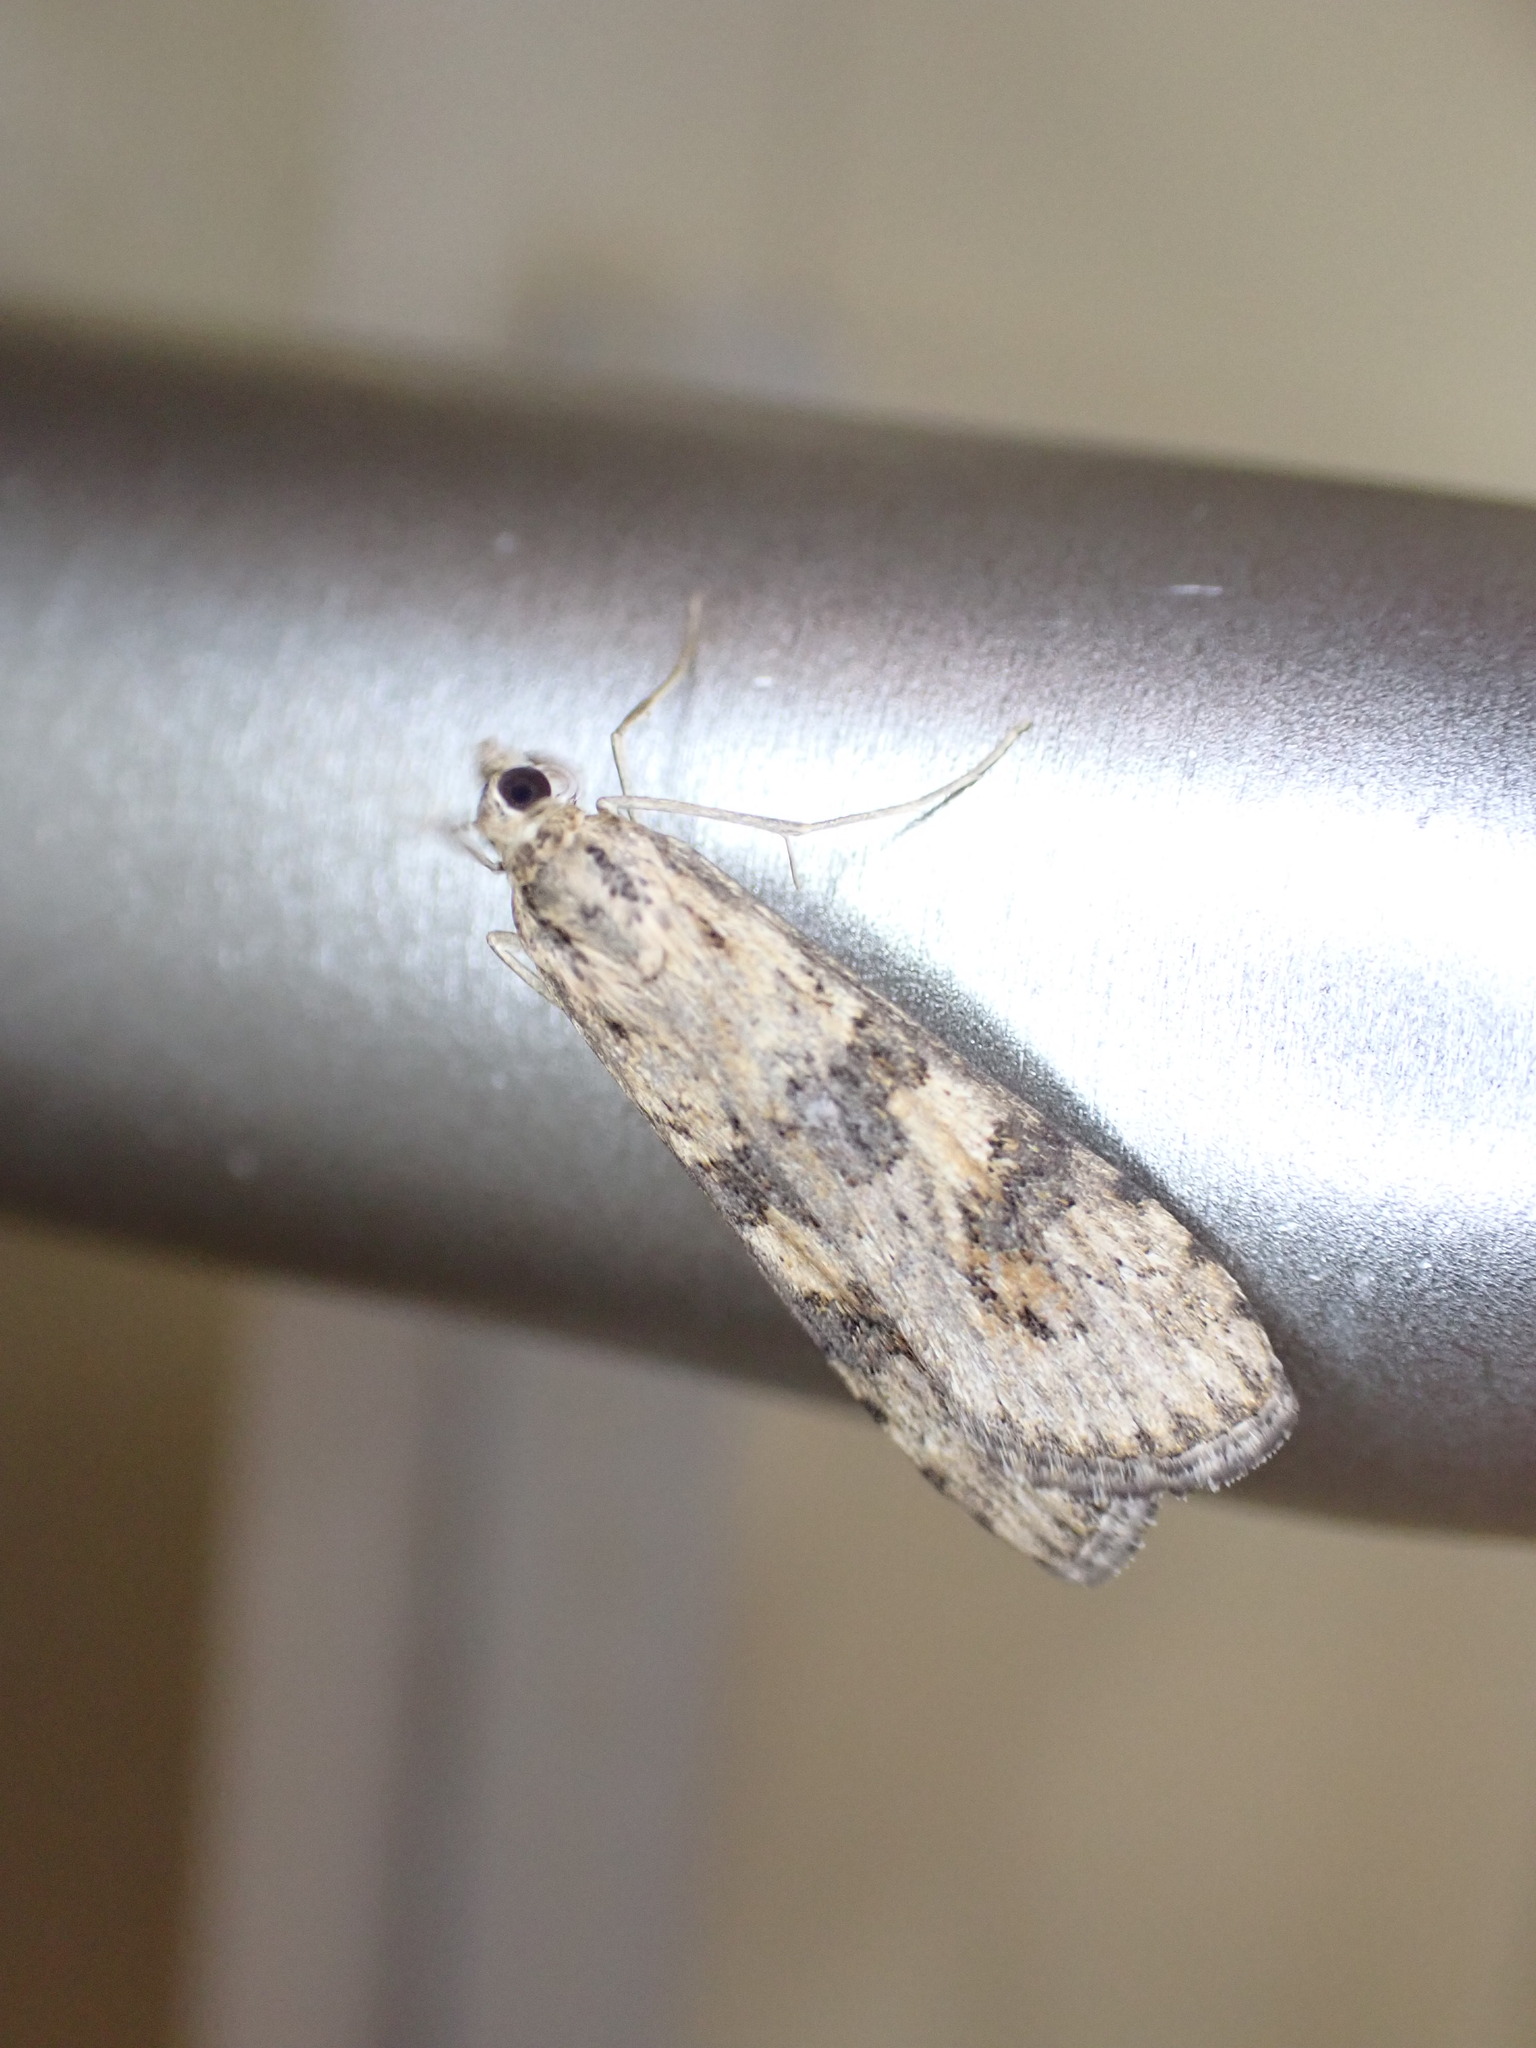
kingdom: Animalia
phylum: Arthropoda
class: Insecta
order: Lepidoptera
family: Crambidae
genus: Nomophila
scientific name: Nomophila noctuella
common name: Rush veneer
